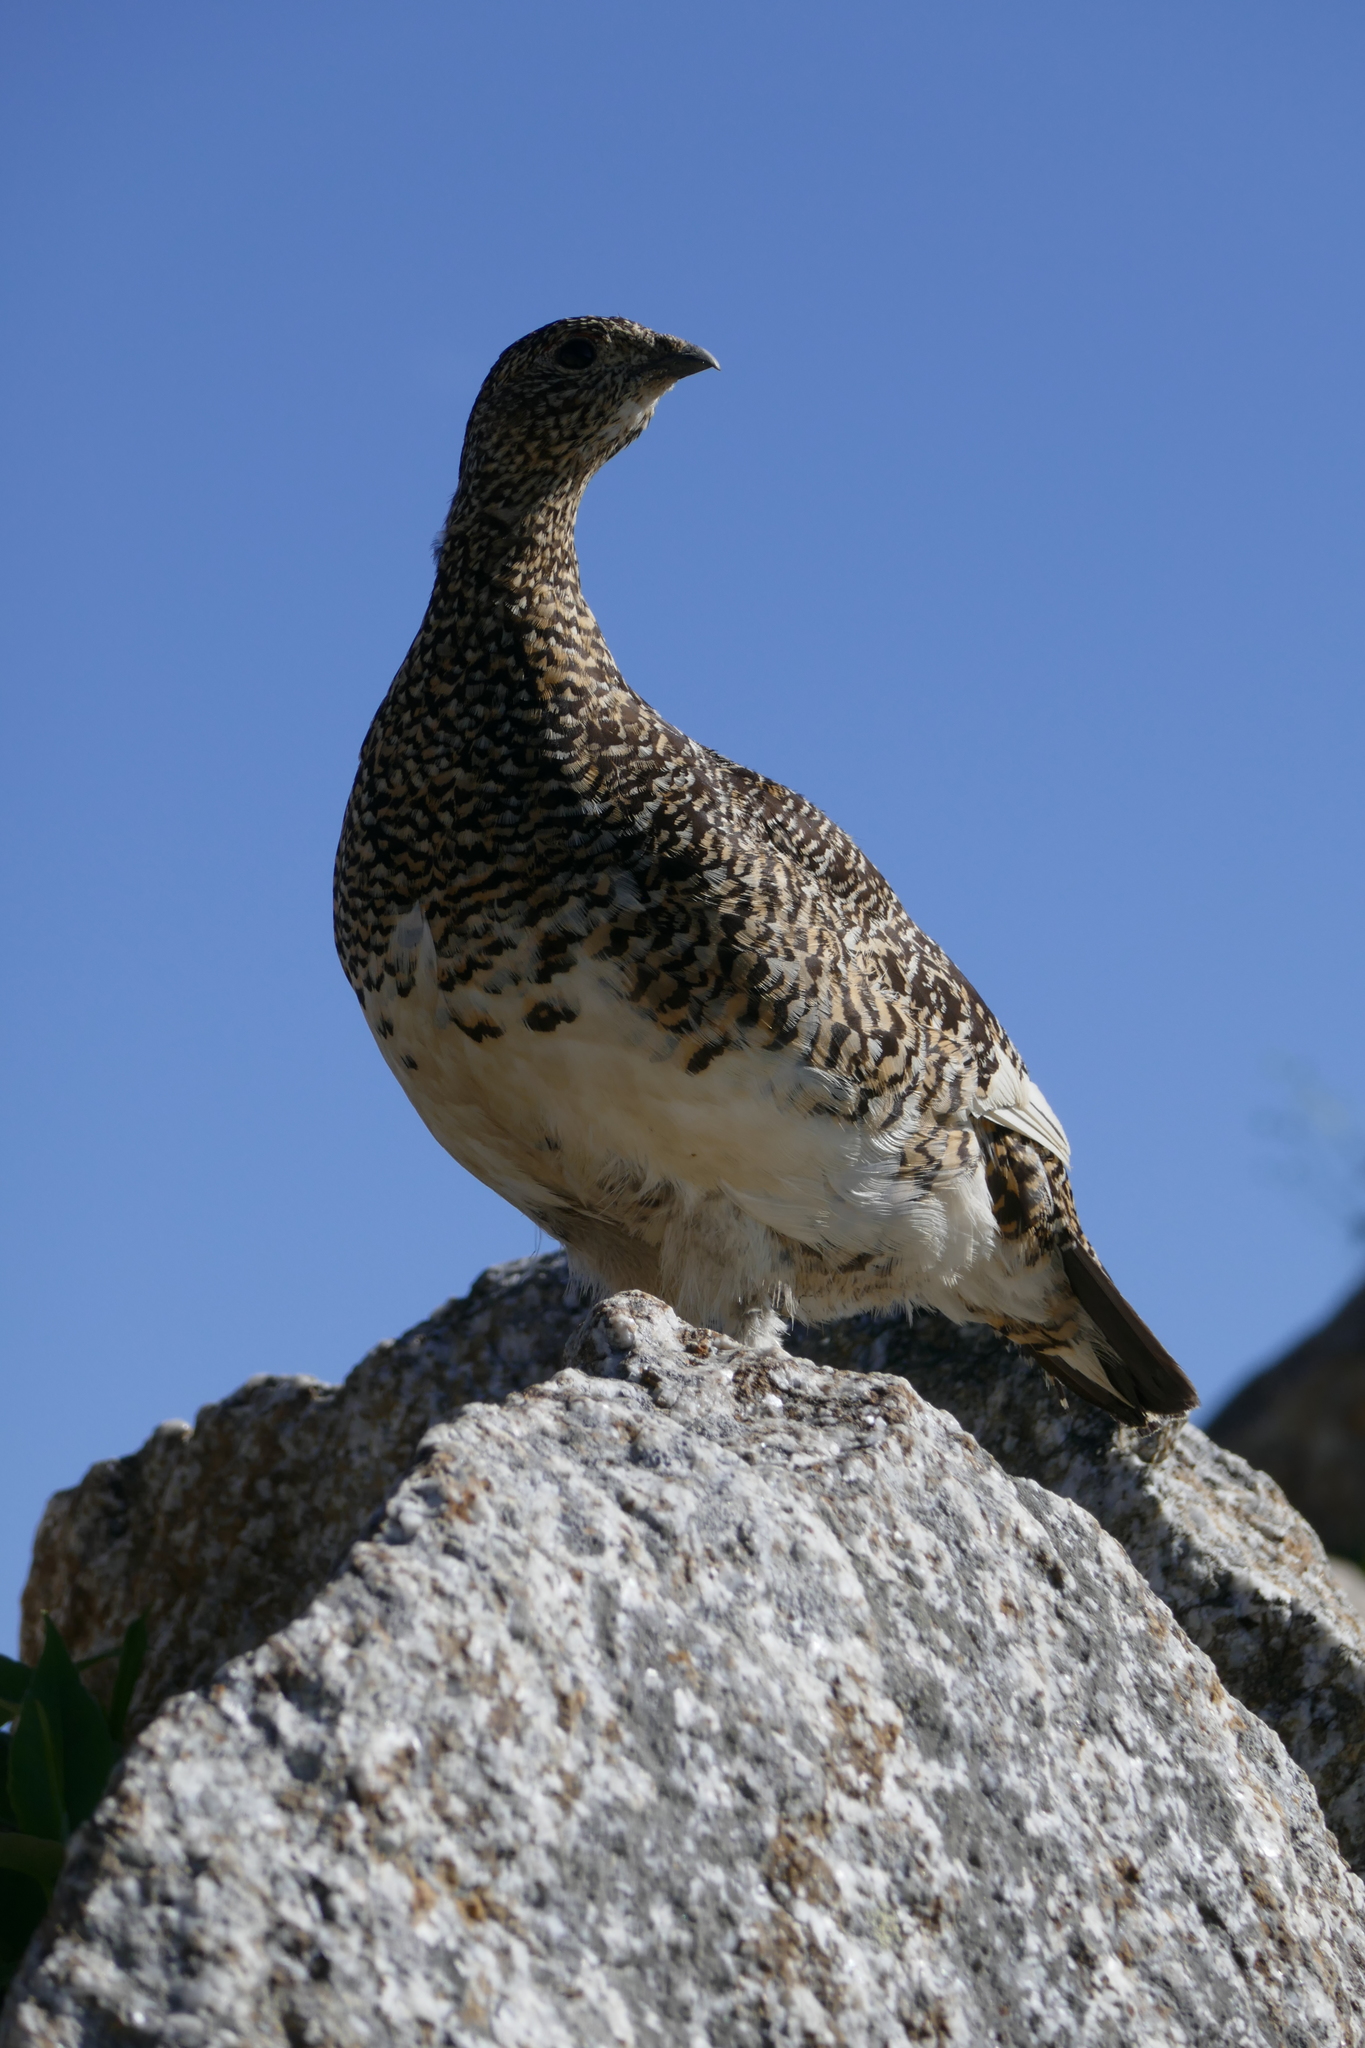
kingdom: Animalia
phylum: Chordata
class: Aves
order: Galliformes
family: Phasianidae
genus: Lagopus
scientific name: Lagopus muta
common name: Rock ptarmigan
